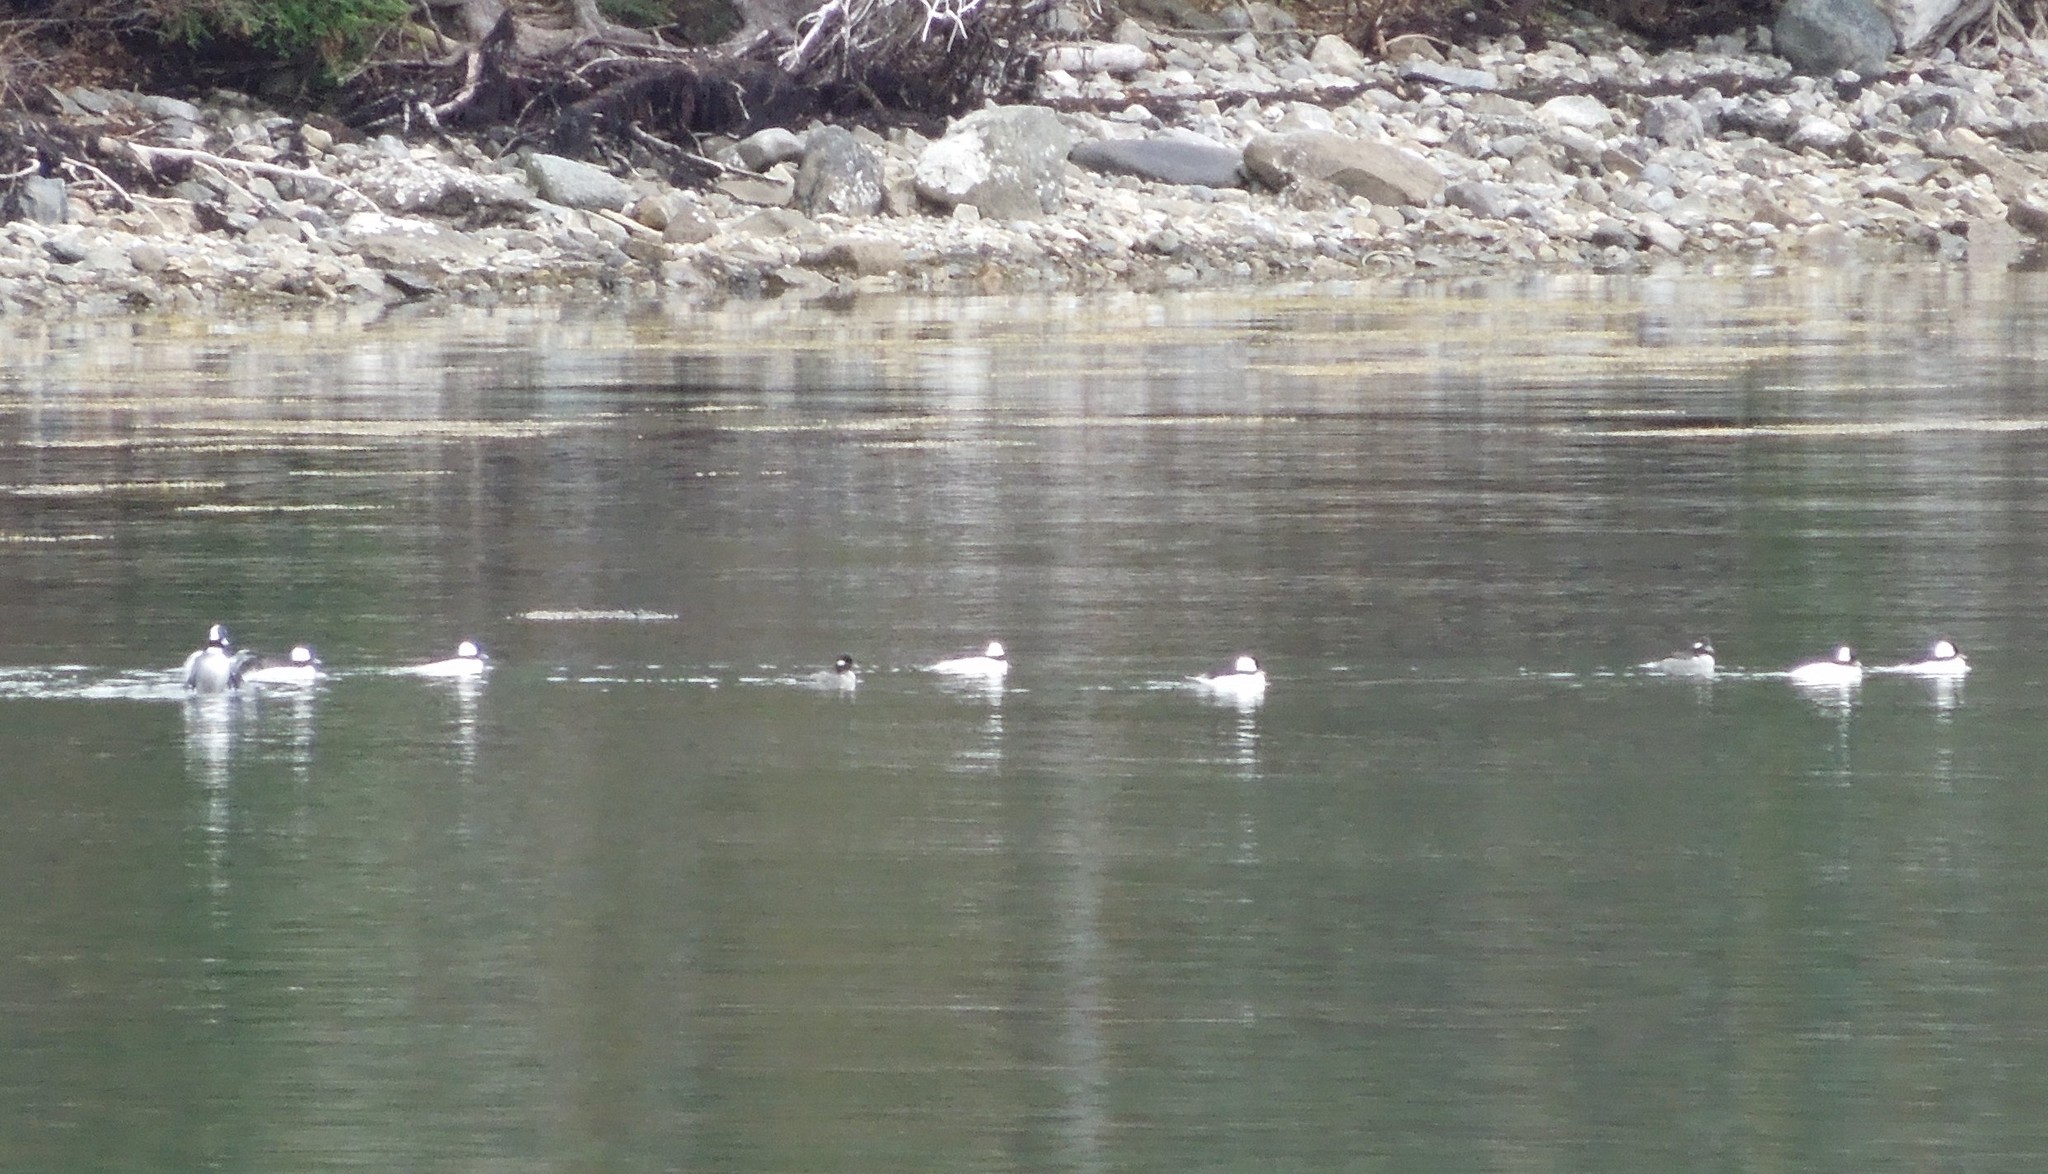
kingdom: Animalia
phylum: Chordata
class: Aves
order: Anseriformes
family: Anatidae
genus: Bucephala
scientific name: Bucephala albeola
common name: Bufflehead
